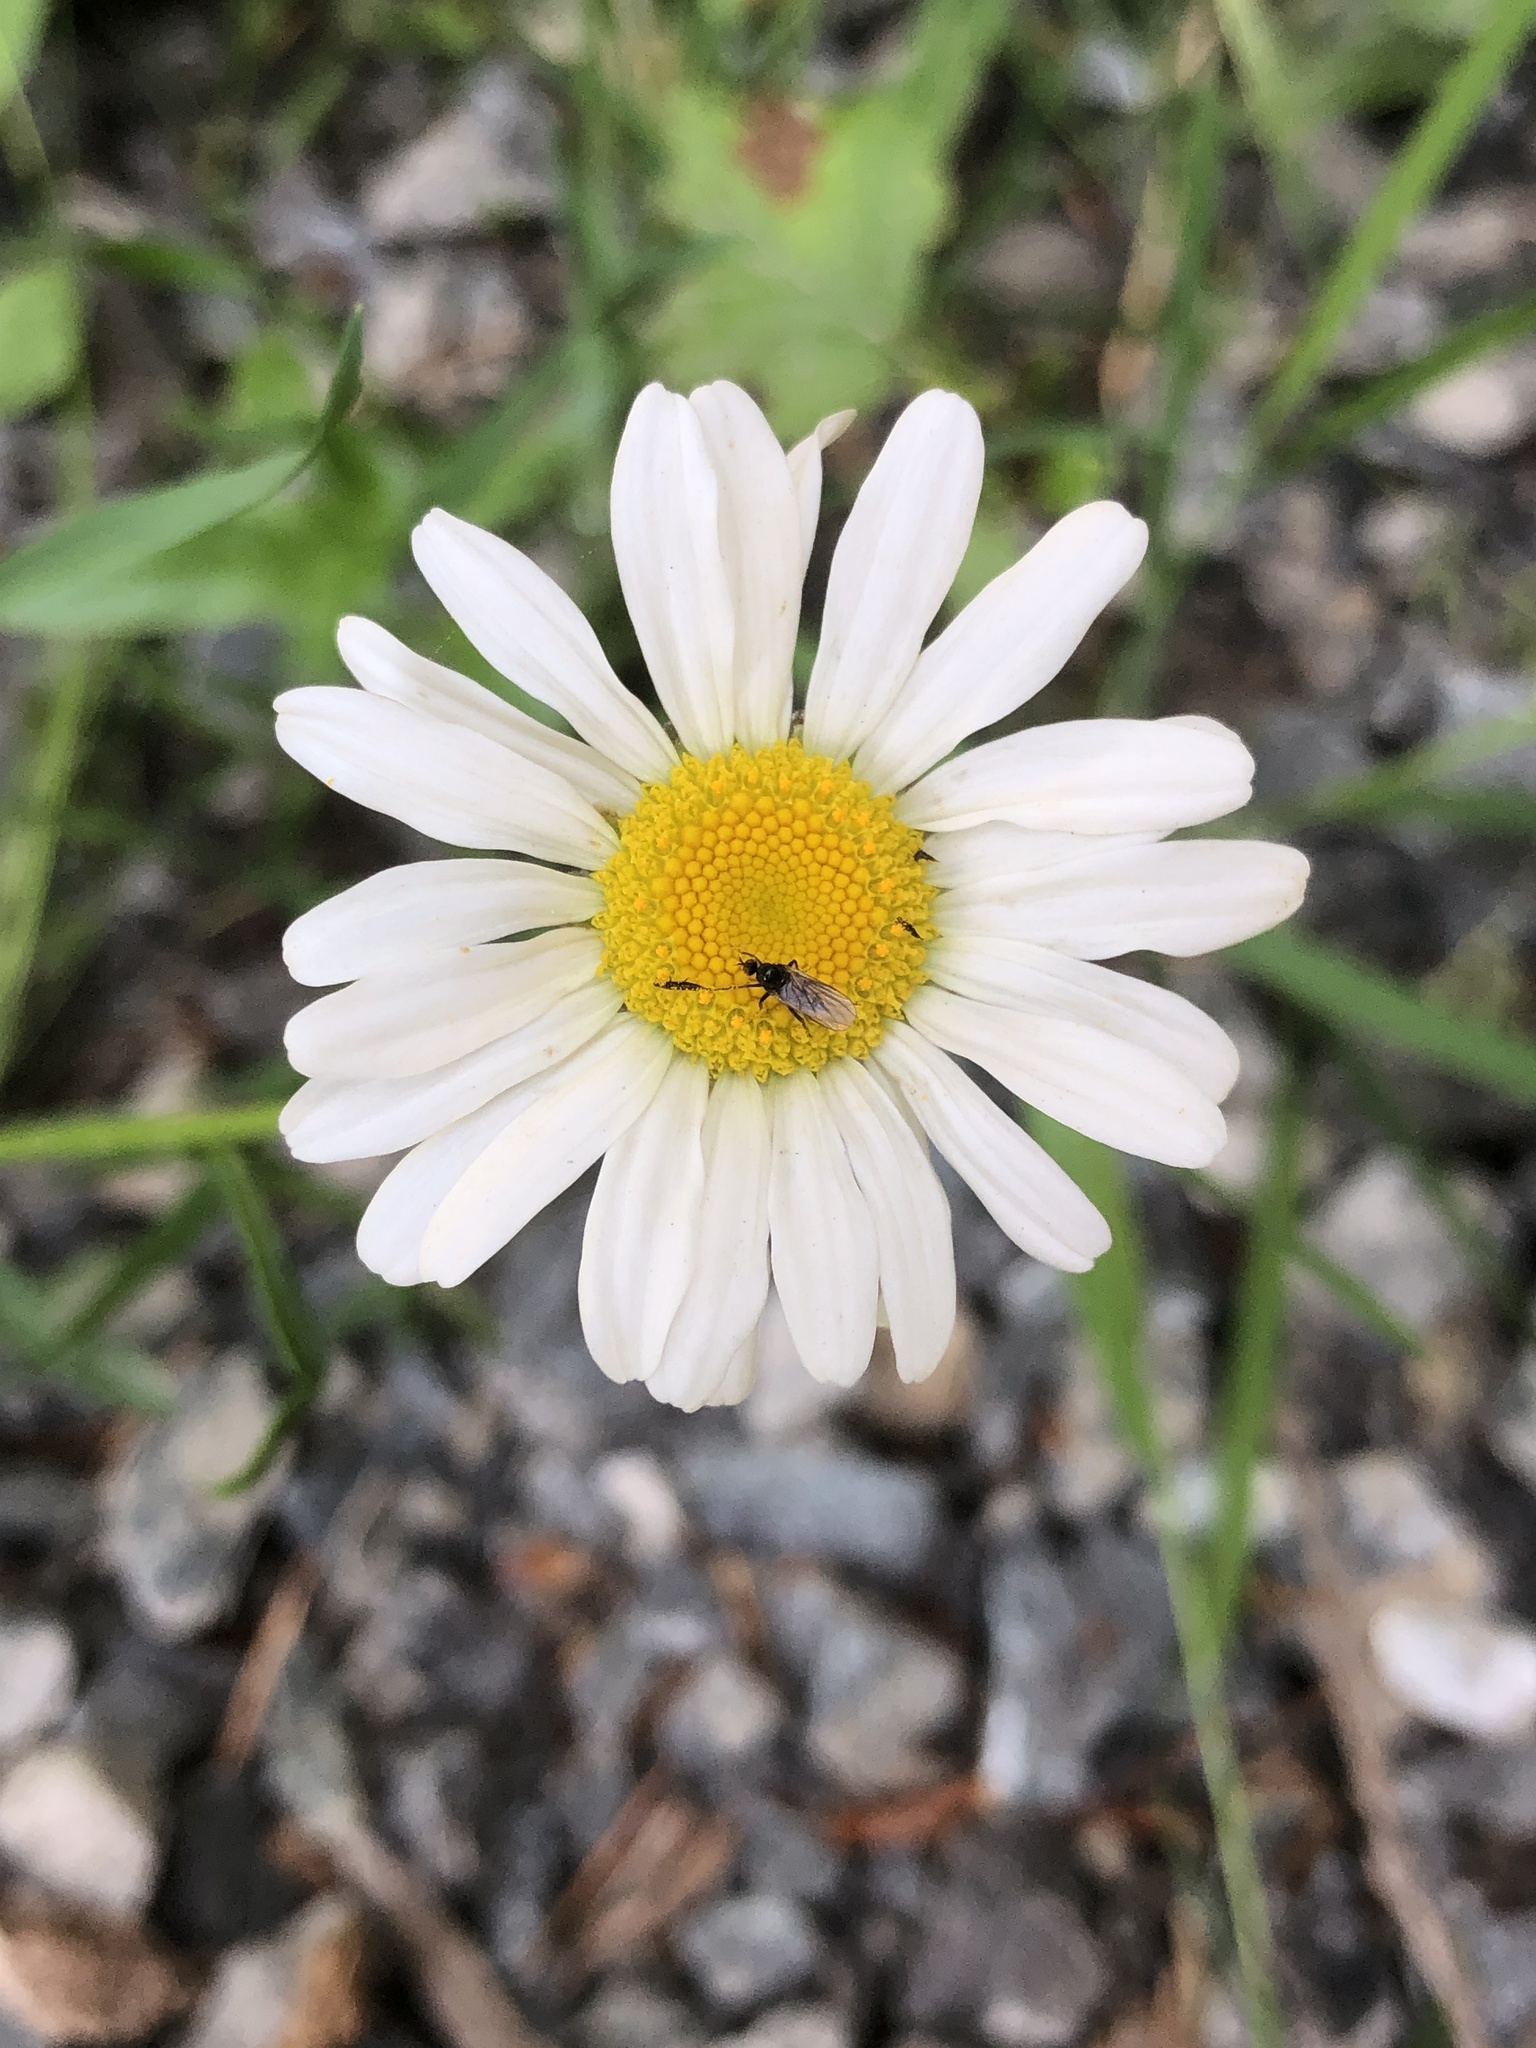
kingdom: Plantae
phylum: Tracheophyta
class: Magnoliopsida
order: Asterales
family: Asteraceae
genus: Leucanthemum
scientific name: Leucanthemum vulgare
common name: Oxeye daisy
